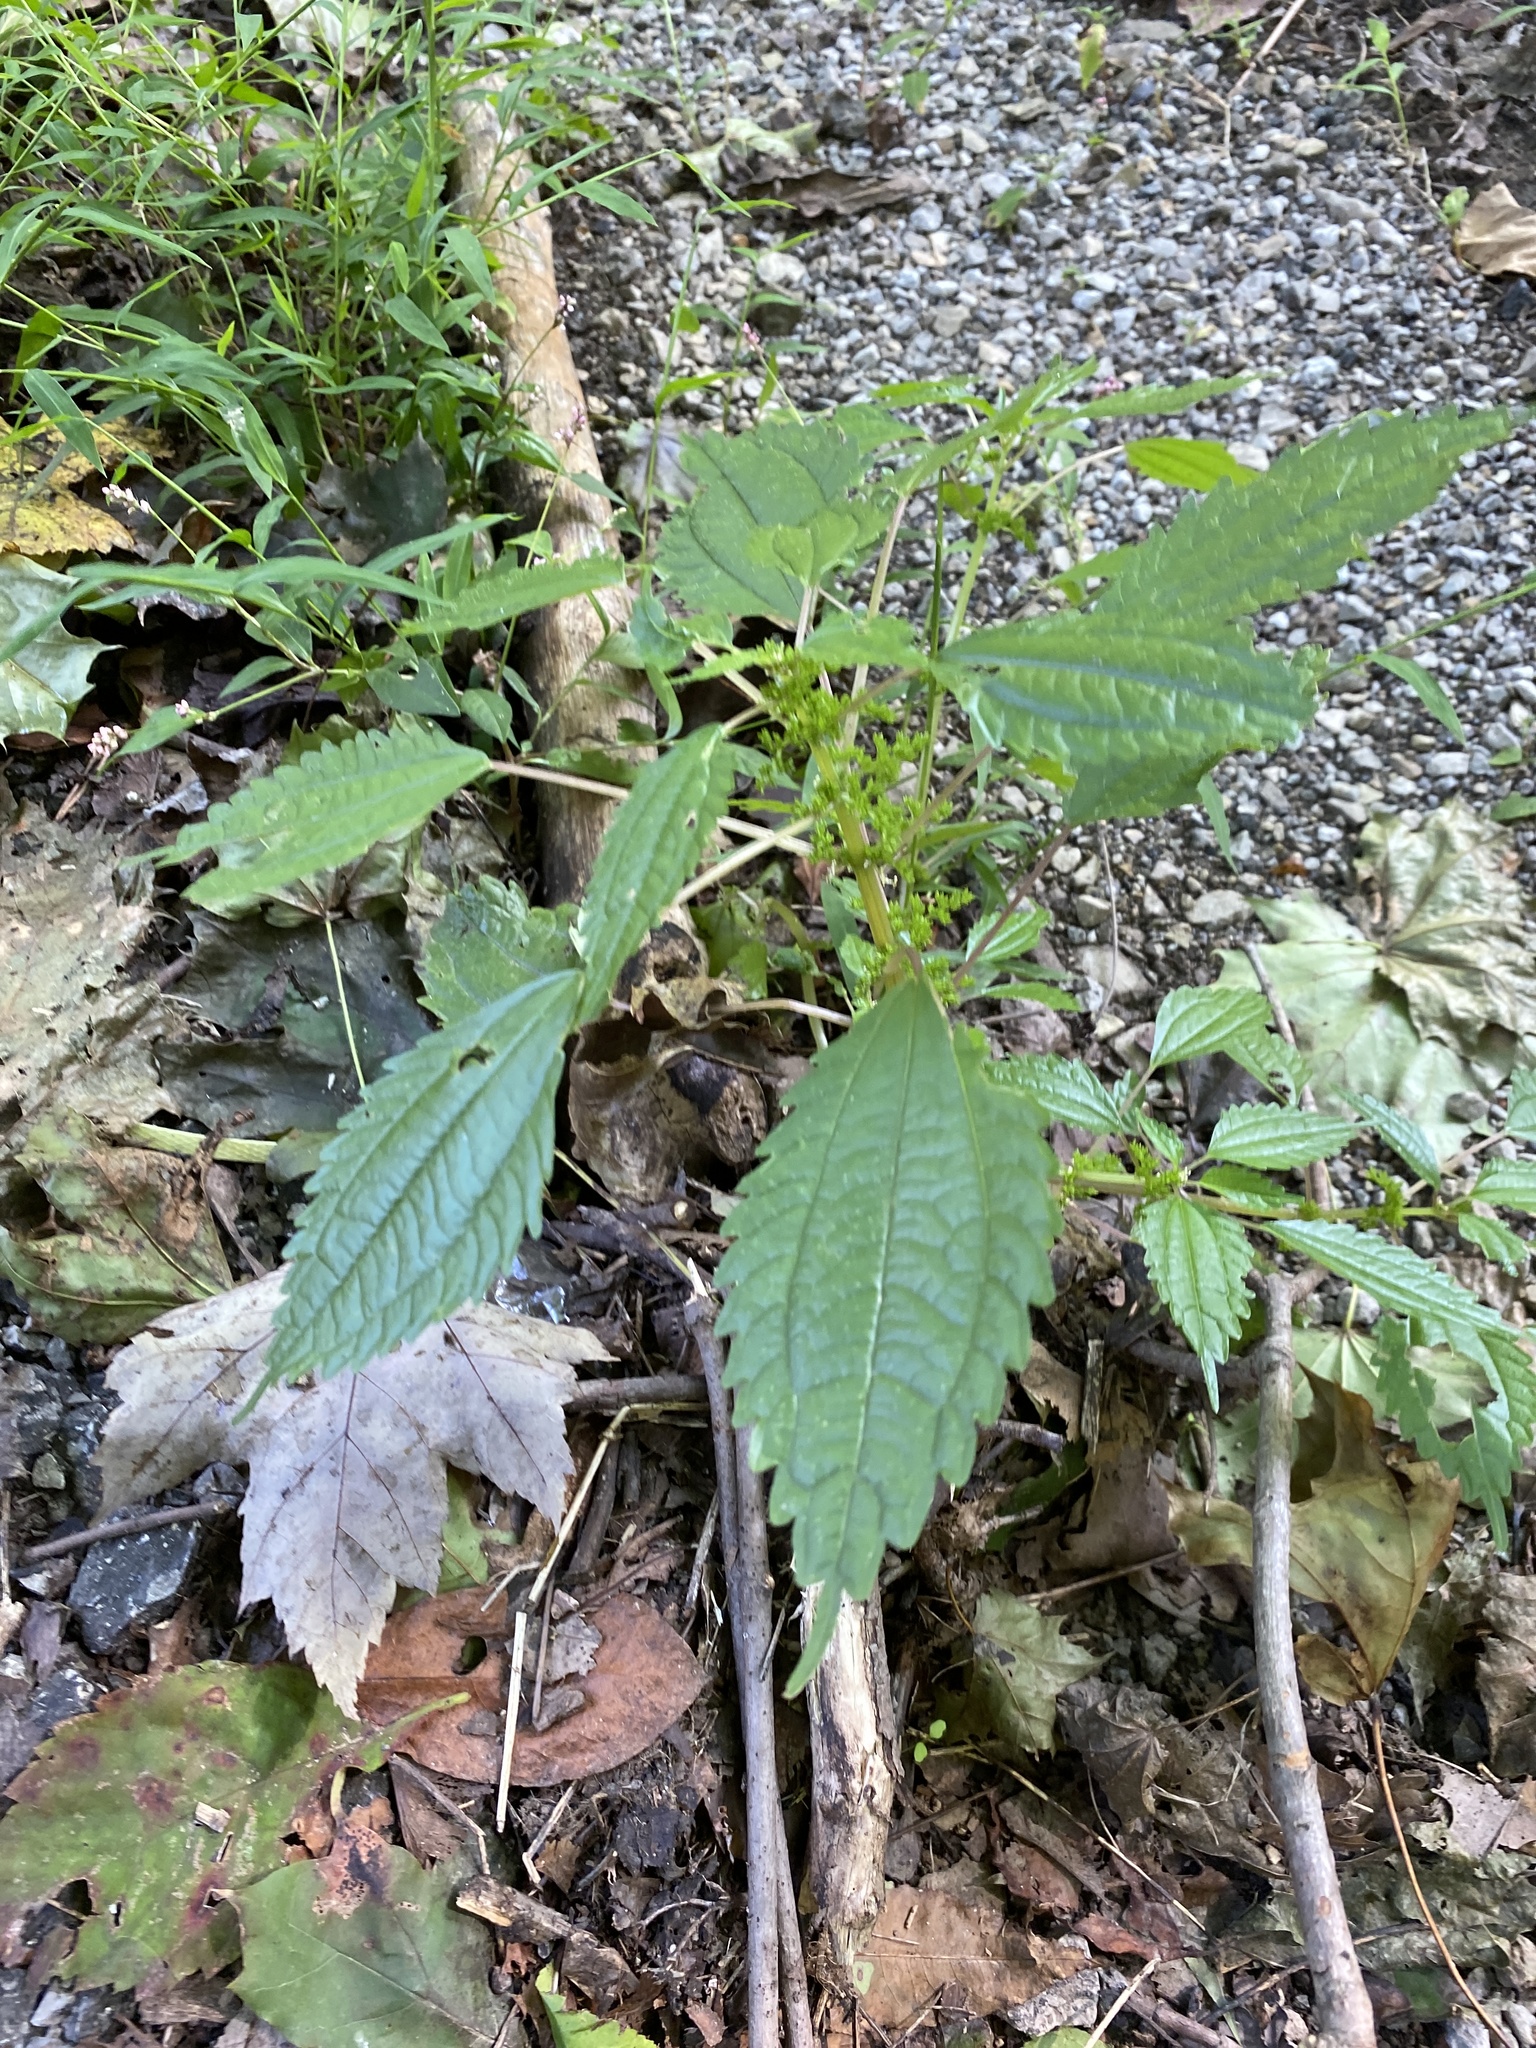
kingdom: Plantae
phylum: Tracheophyta
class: Magnoliopsida
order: Rosales
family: Urticaceae
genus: Pilea
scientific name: Pilea pumila
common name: Clearweed
